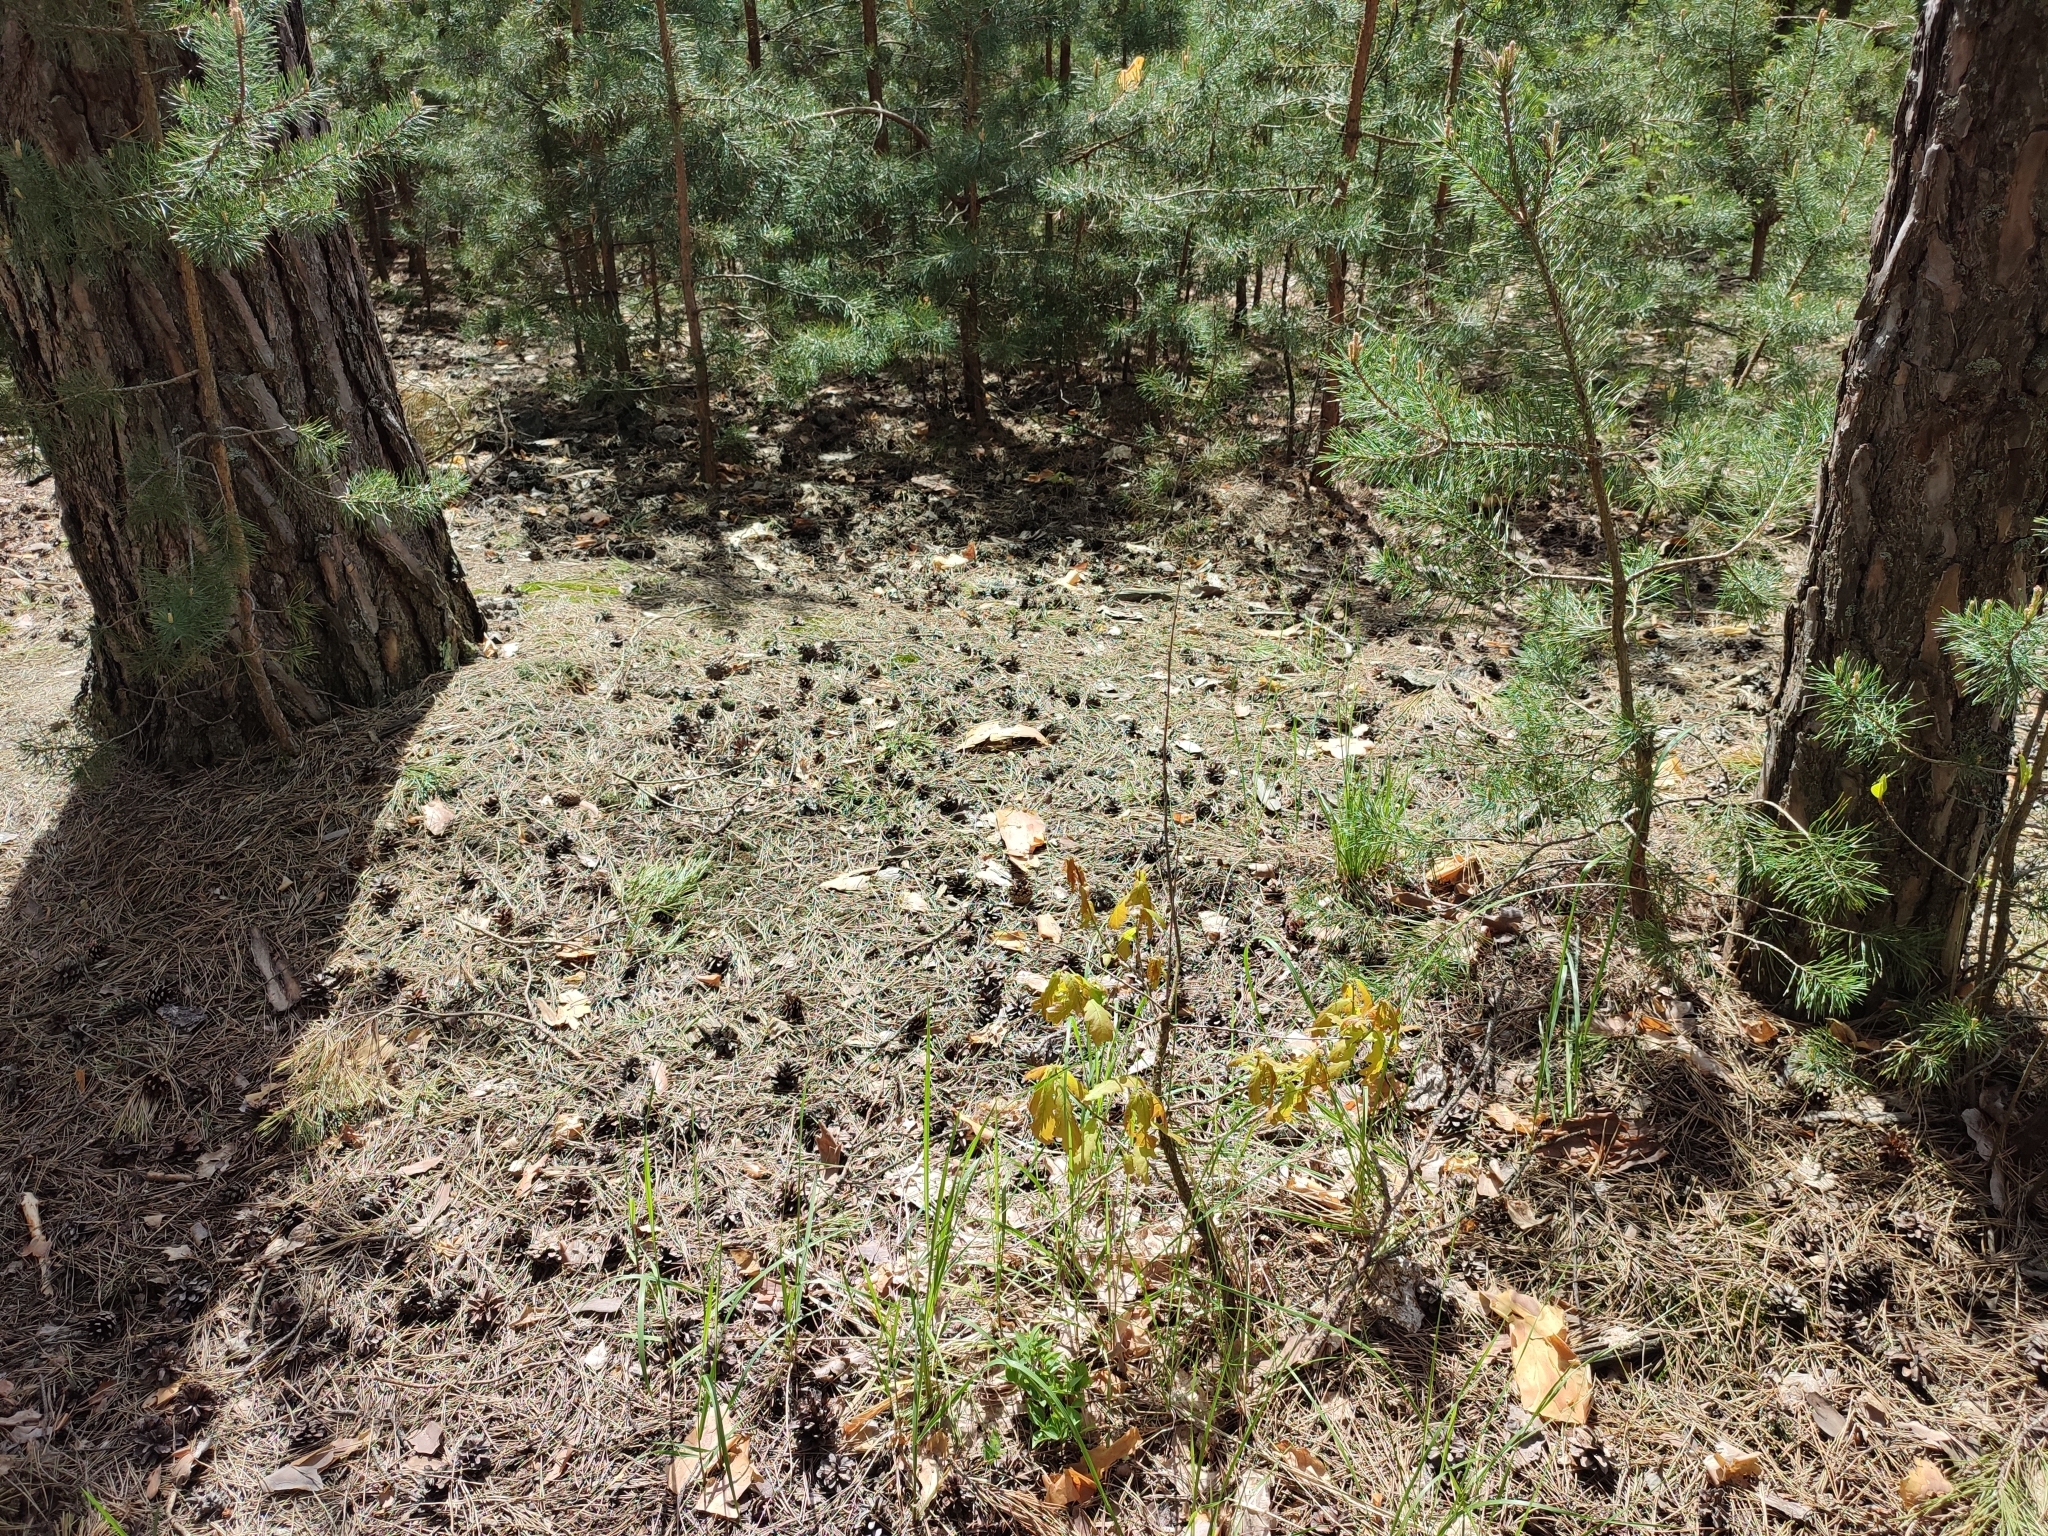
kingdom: Plantae
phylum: Tracheophyta
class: Magnoliopsida
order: Fagales
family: Fagaceae
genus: Quercus
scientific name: Quercus robur
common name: Pedunculate oak
